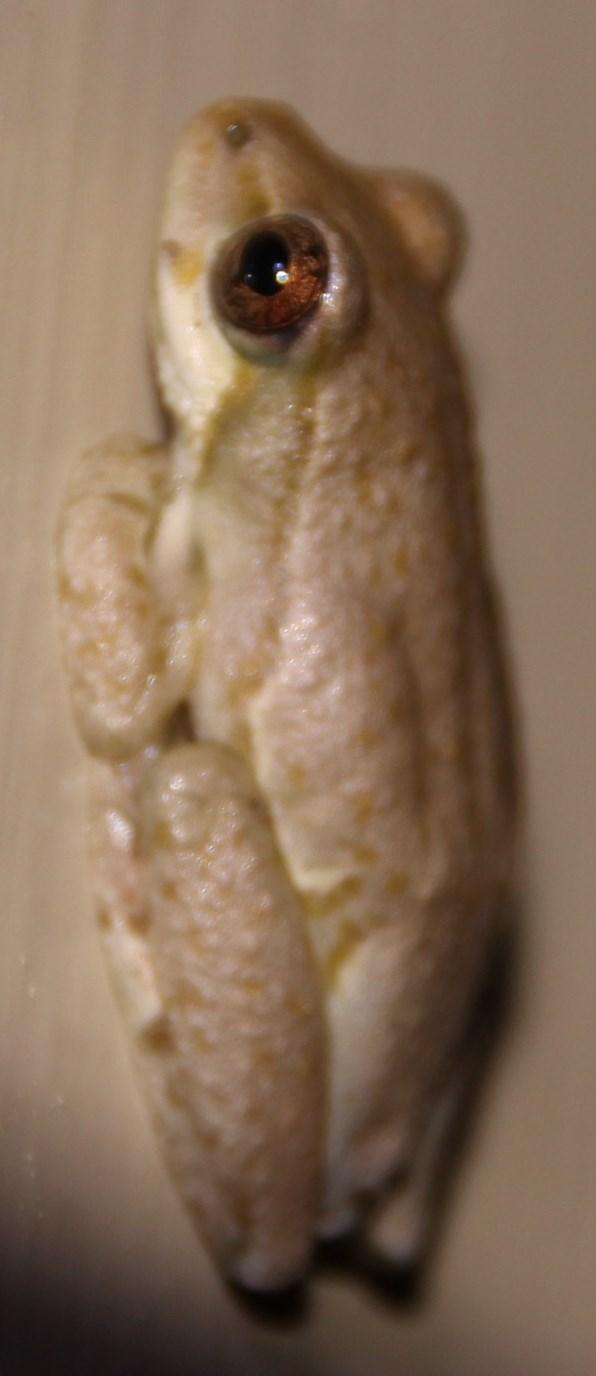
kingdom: Animalia
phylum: Chordata
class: Amphibia
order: Anura
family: Hyperoliidae
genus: Hyperolius
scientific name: Hyperolius marmoratus
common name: Painted reed frog
